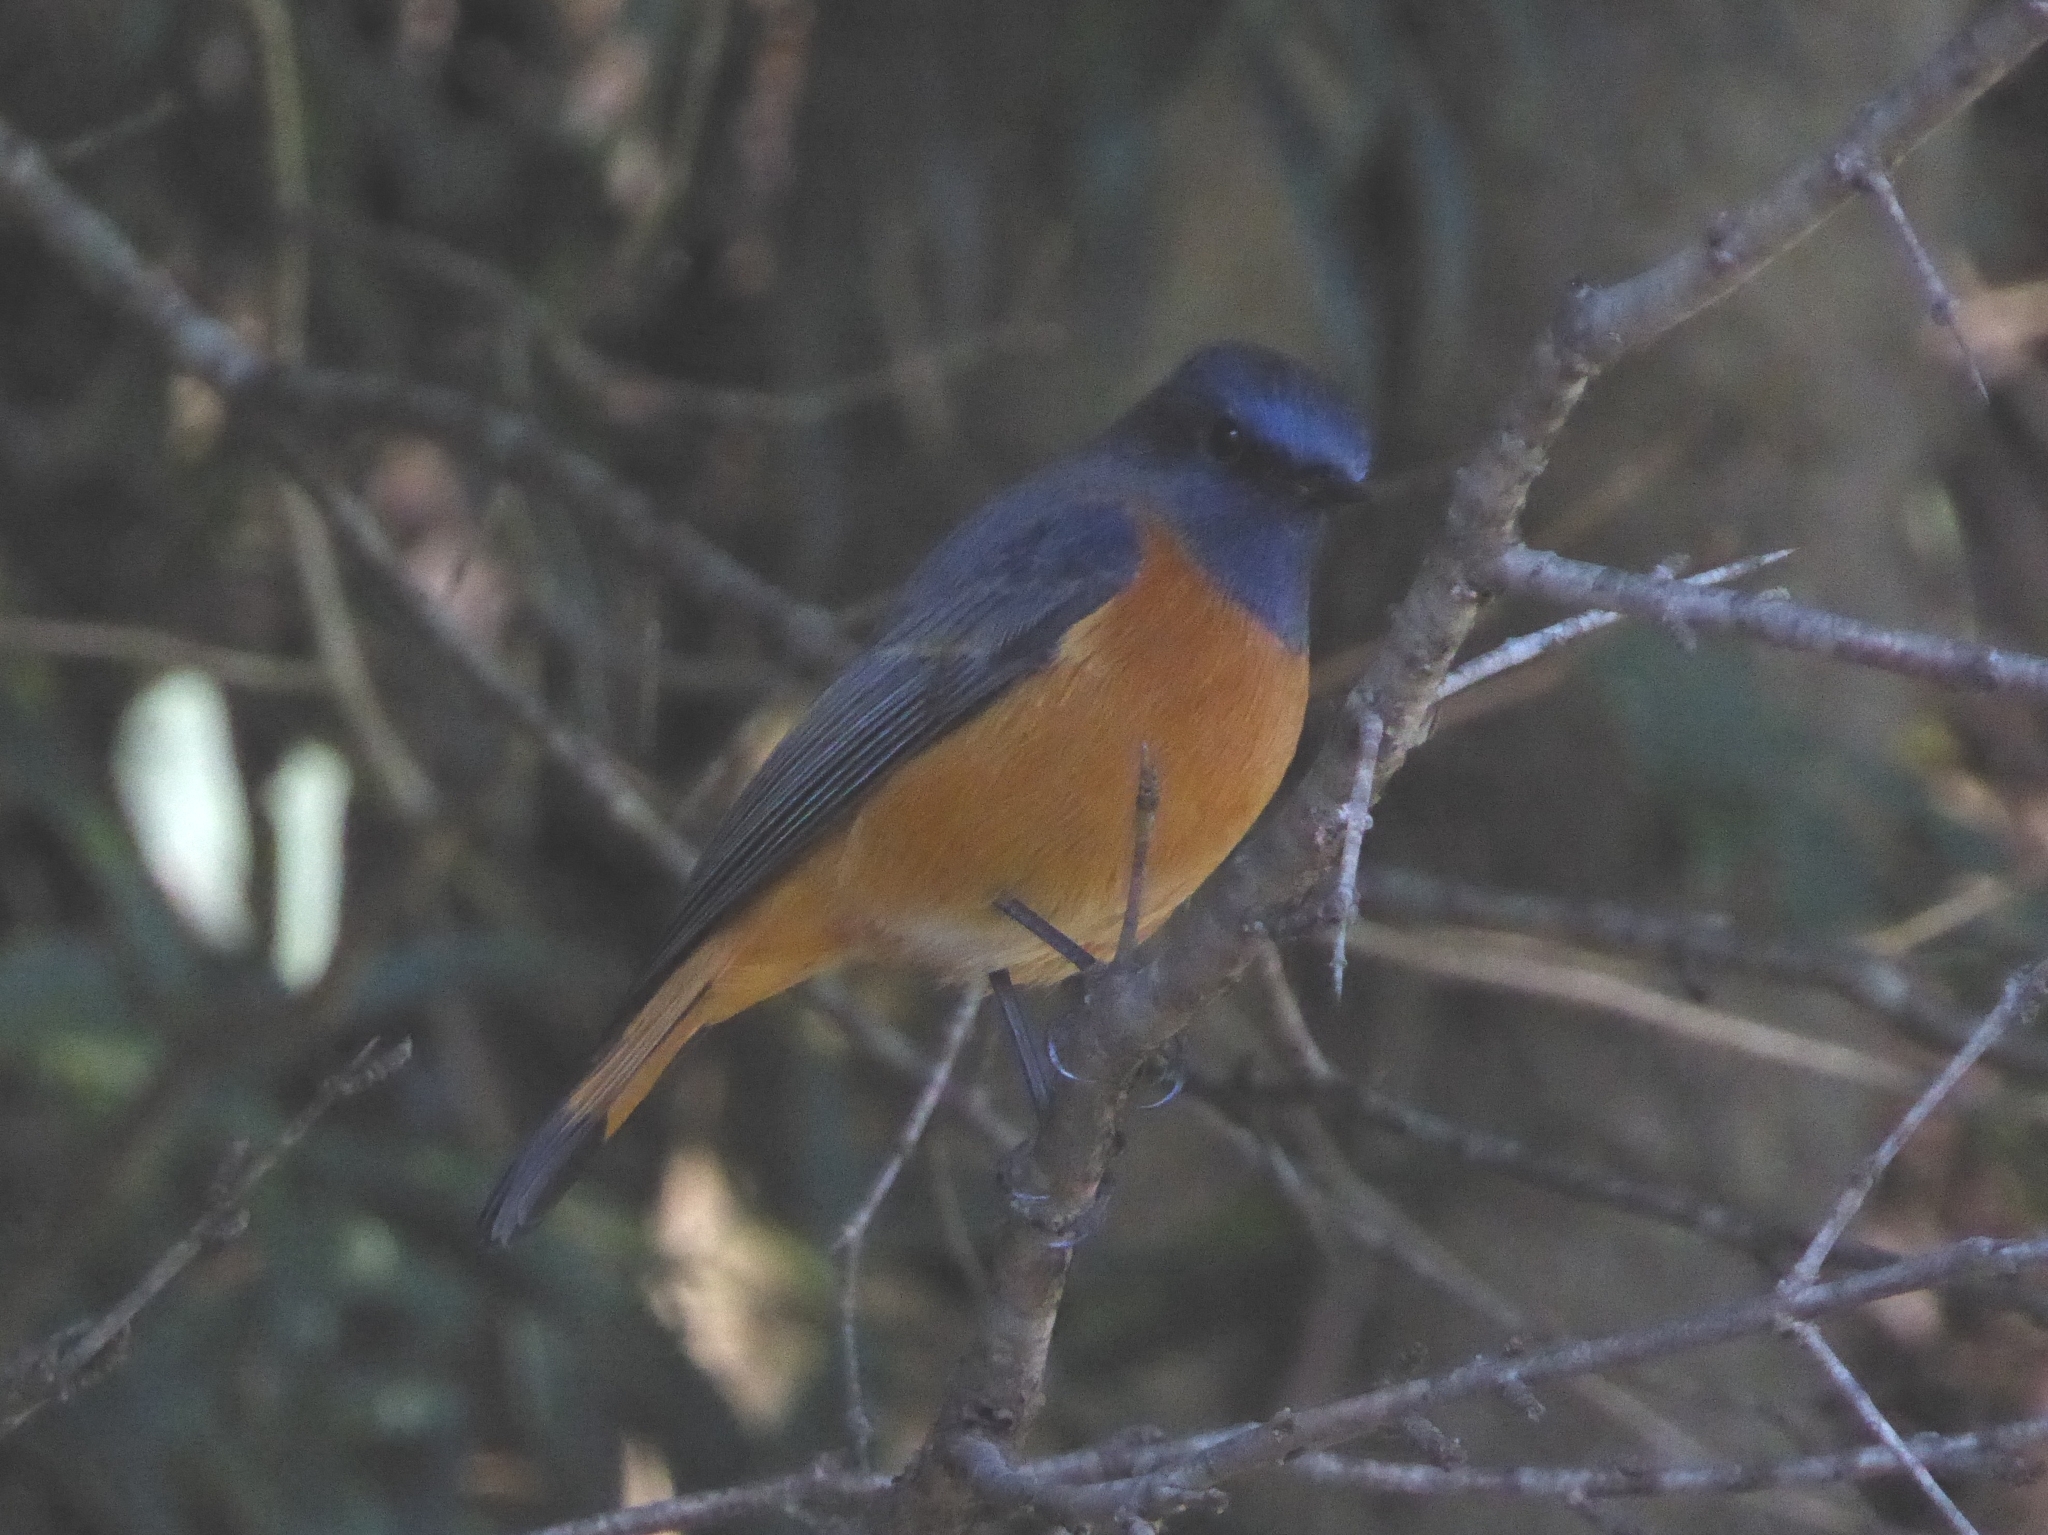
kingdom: Animalia
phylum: Chordata
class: Aves
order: Passeriformes
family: Muscicapidae
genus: Phoenicurus
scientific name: Phoenicurus frontalis
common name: Blue-fronted redstart
